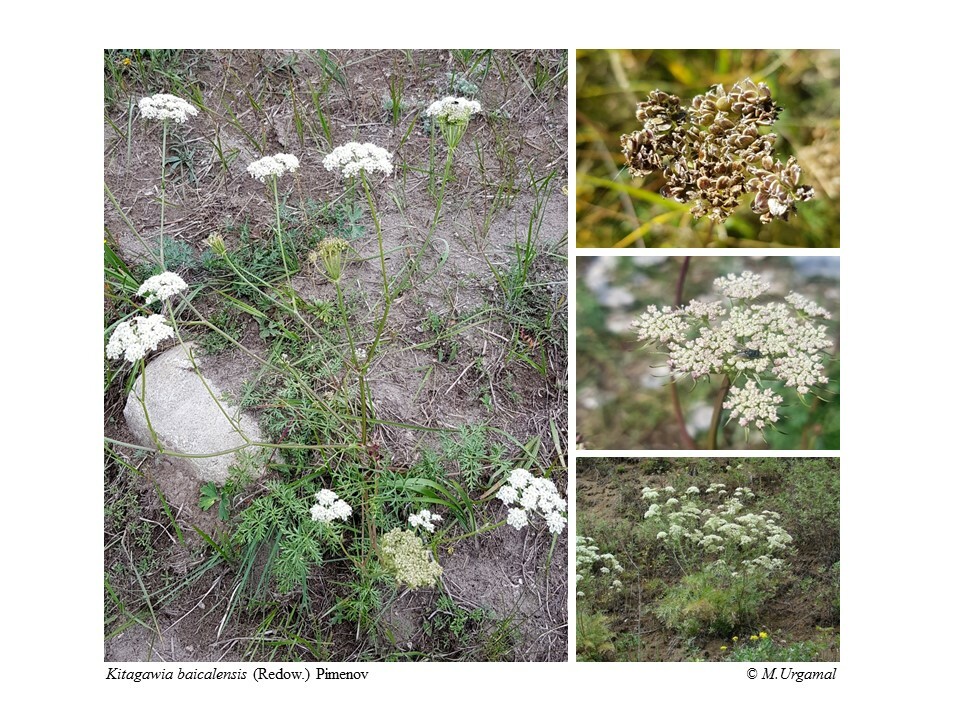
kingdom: Plantae
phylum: Tracheophyta
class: Magnoliopsida
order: Apiales
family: Apiaceae
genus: Kitagawia
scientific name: Kitagawia baicalensis
